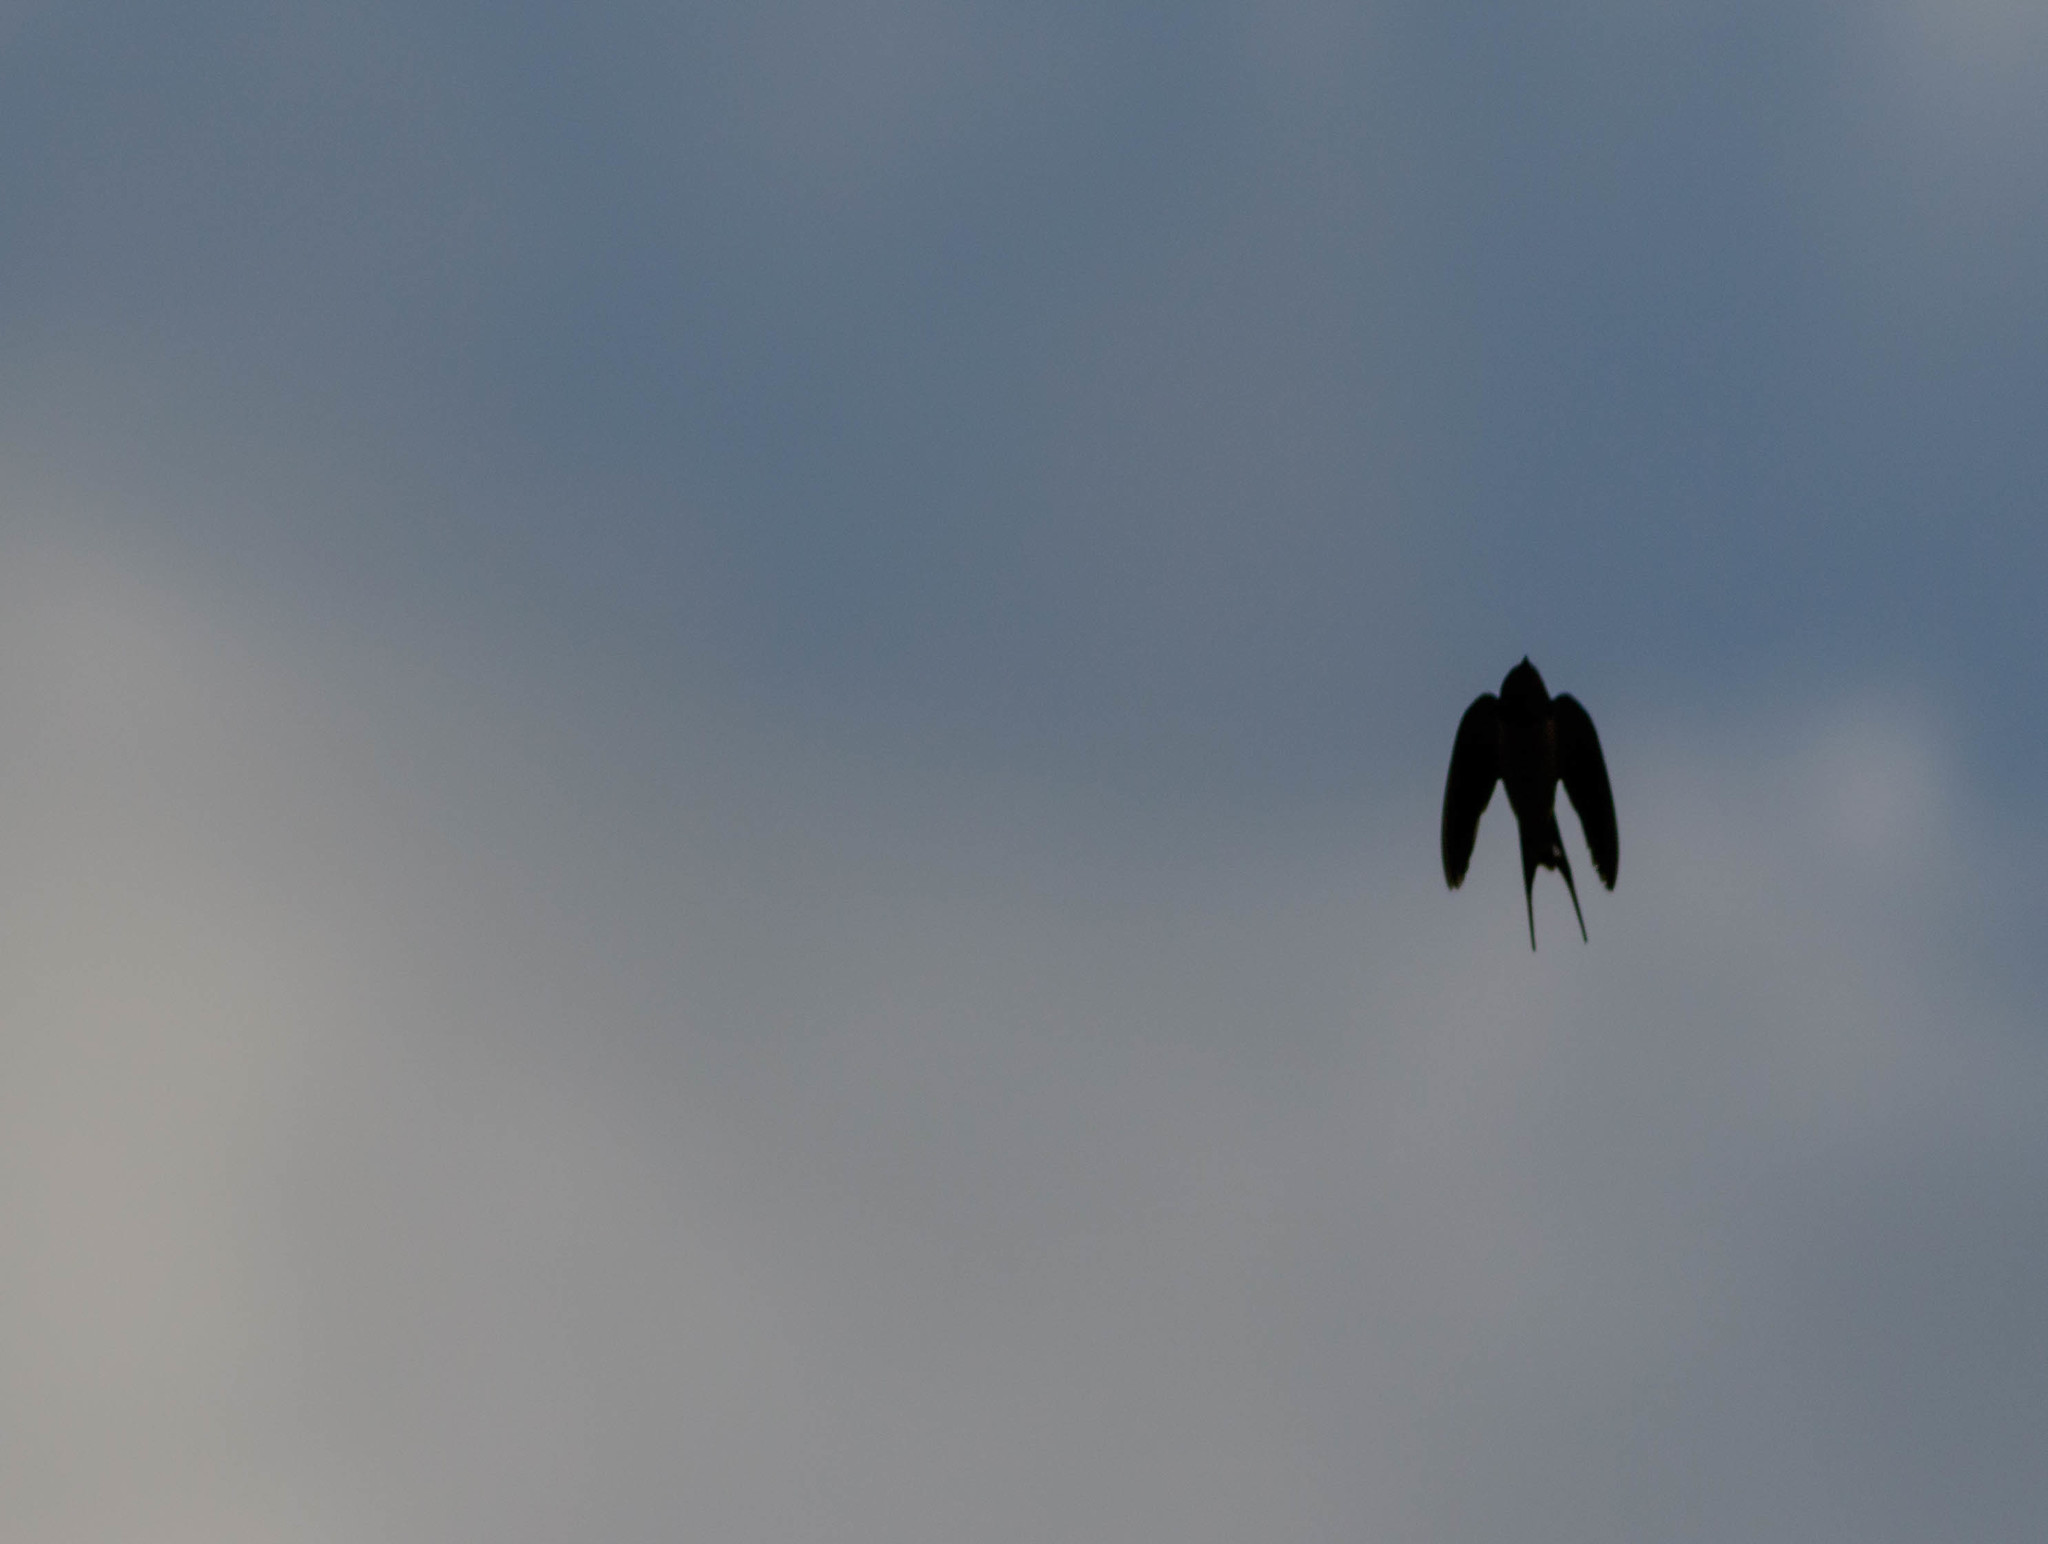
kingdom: Animalia
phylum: Chordata
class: Aves
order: Passeriformes
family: Hirundinidae
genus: Hirundo
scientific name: Hirundo rustica
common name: Barn swallow
